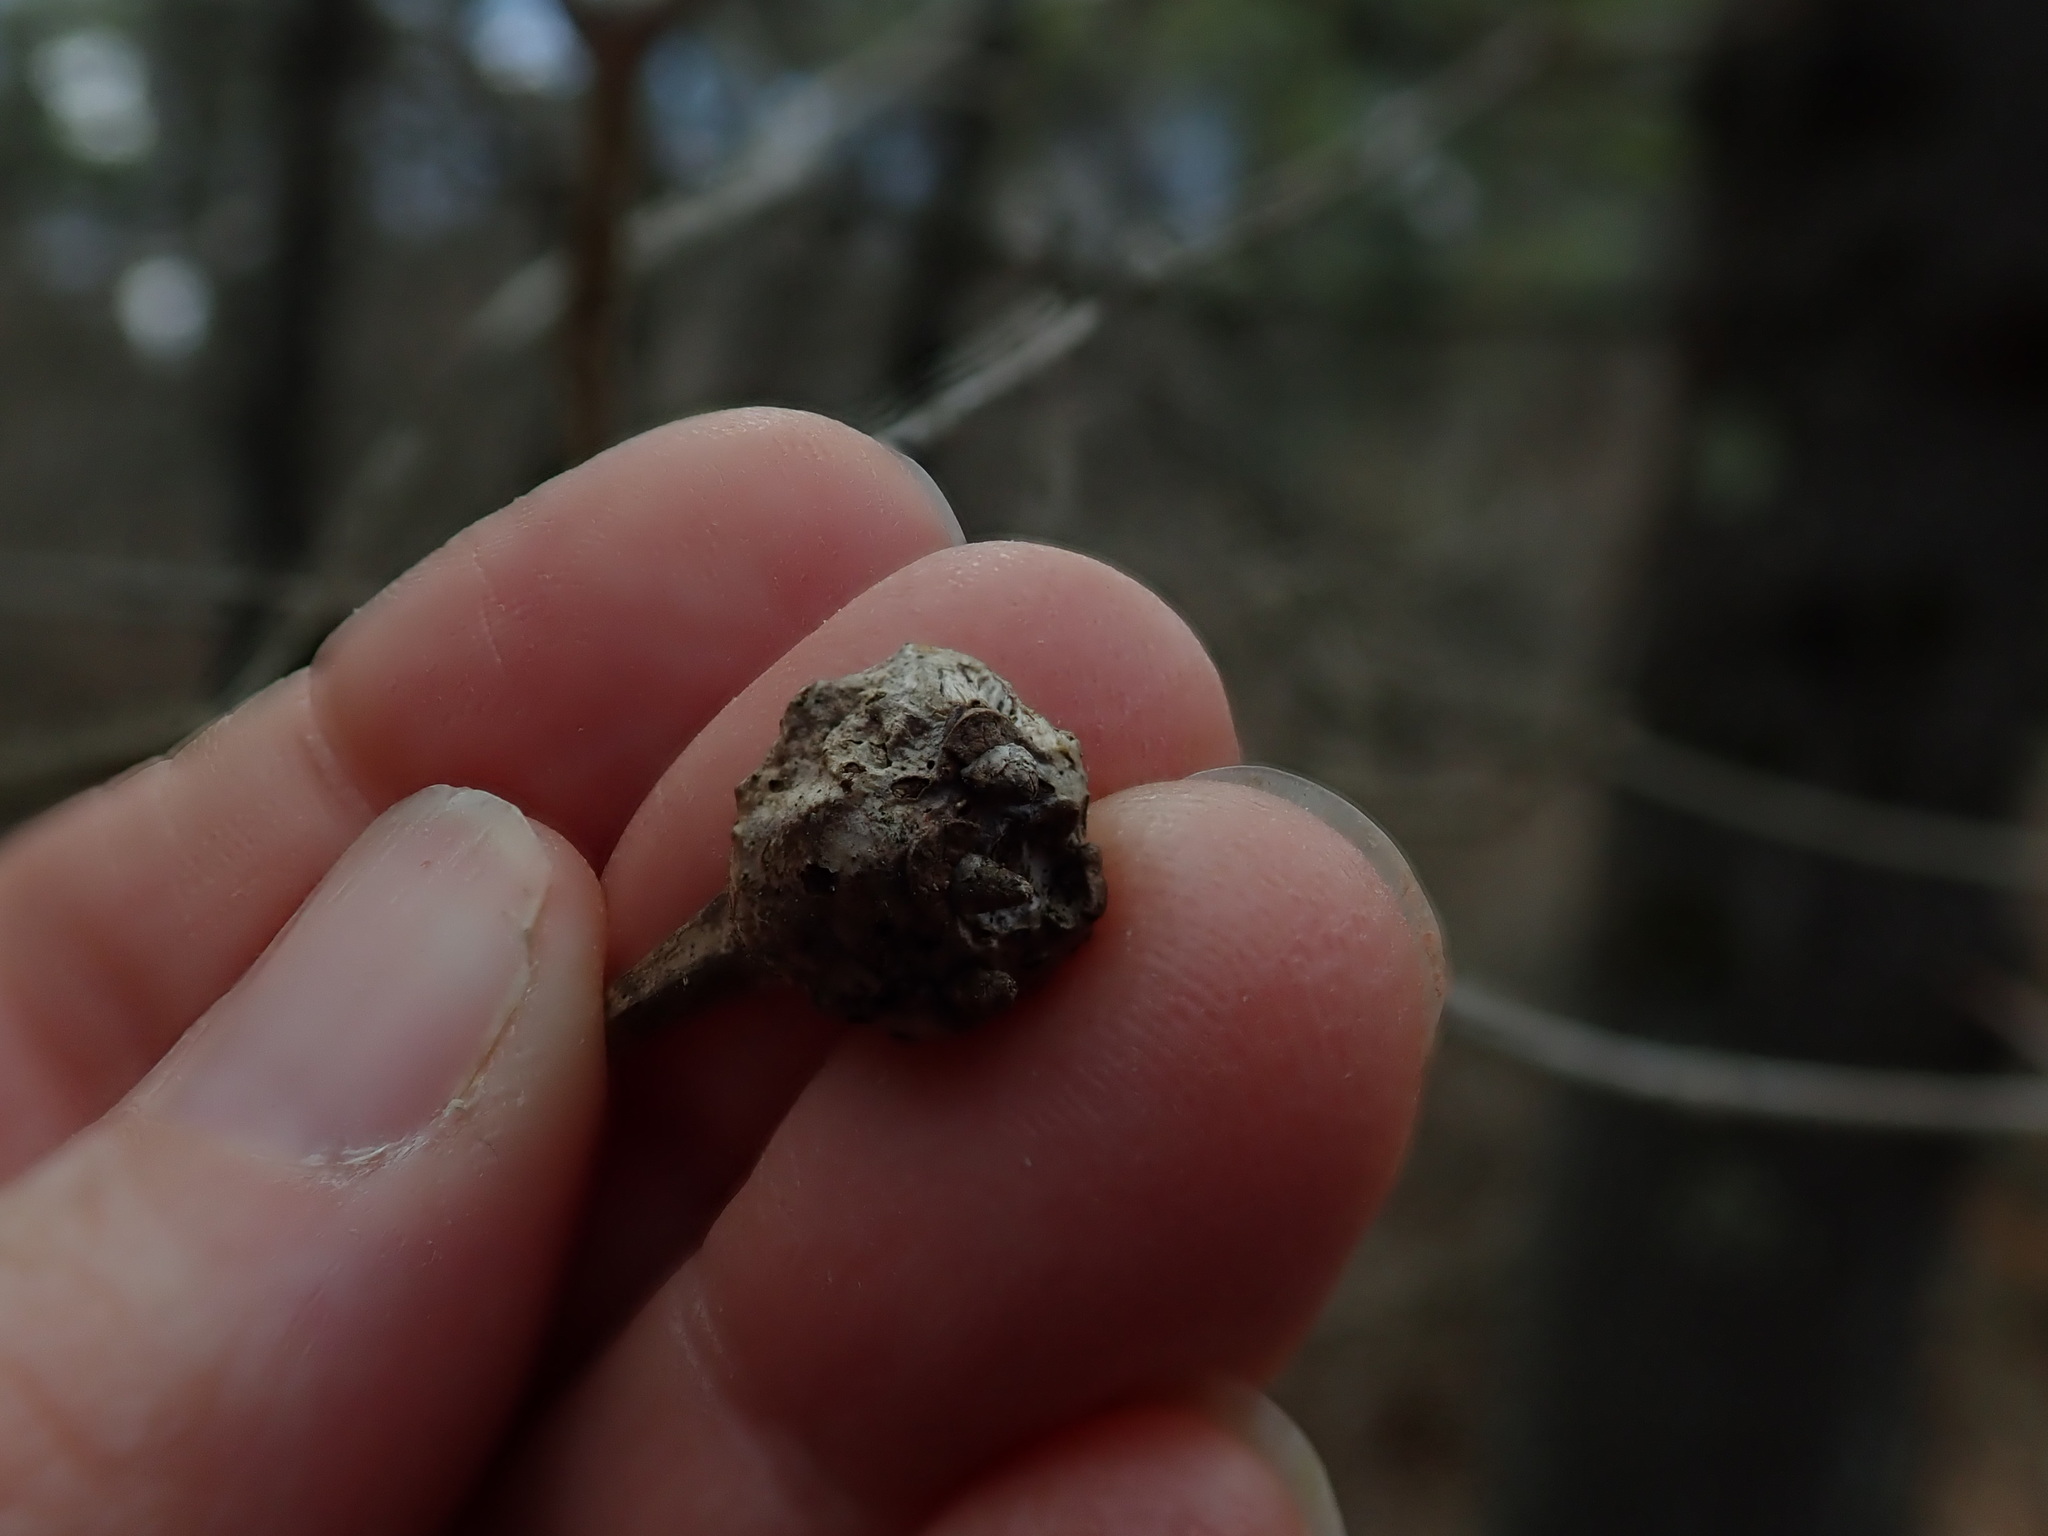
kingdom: Animalia
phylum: Arthropoda
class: Insecta
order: Hymenoptera
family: Cynipidae
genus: Callirhytis
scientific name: Callirhytis clavula
